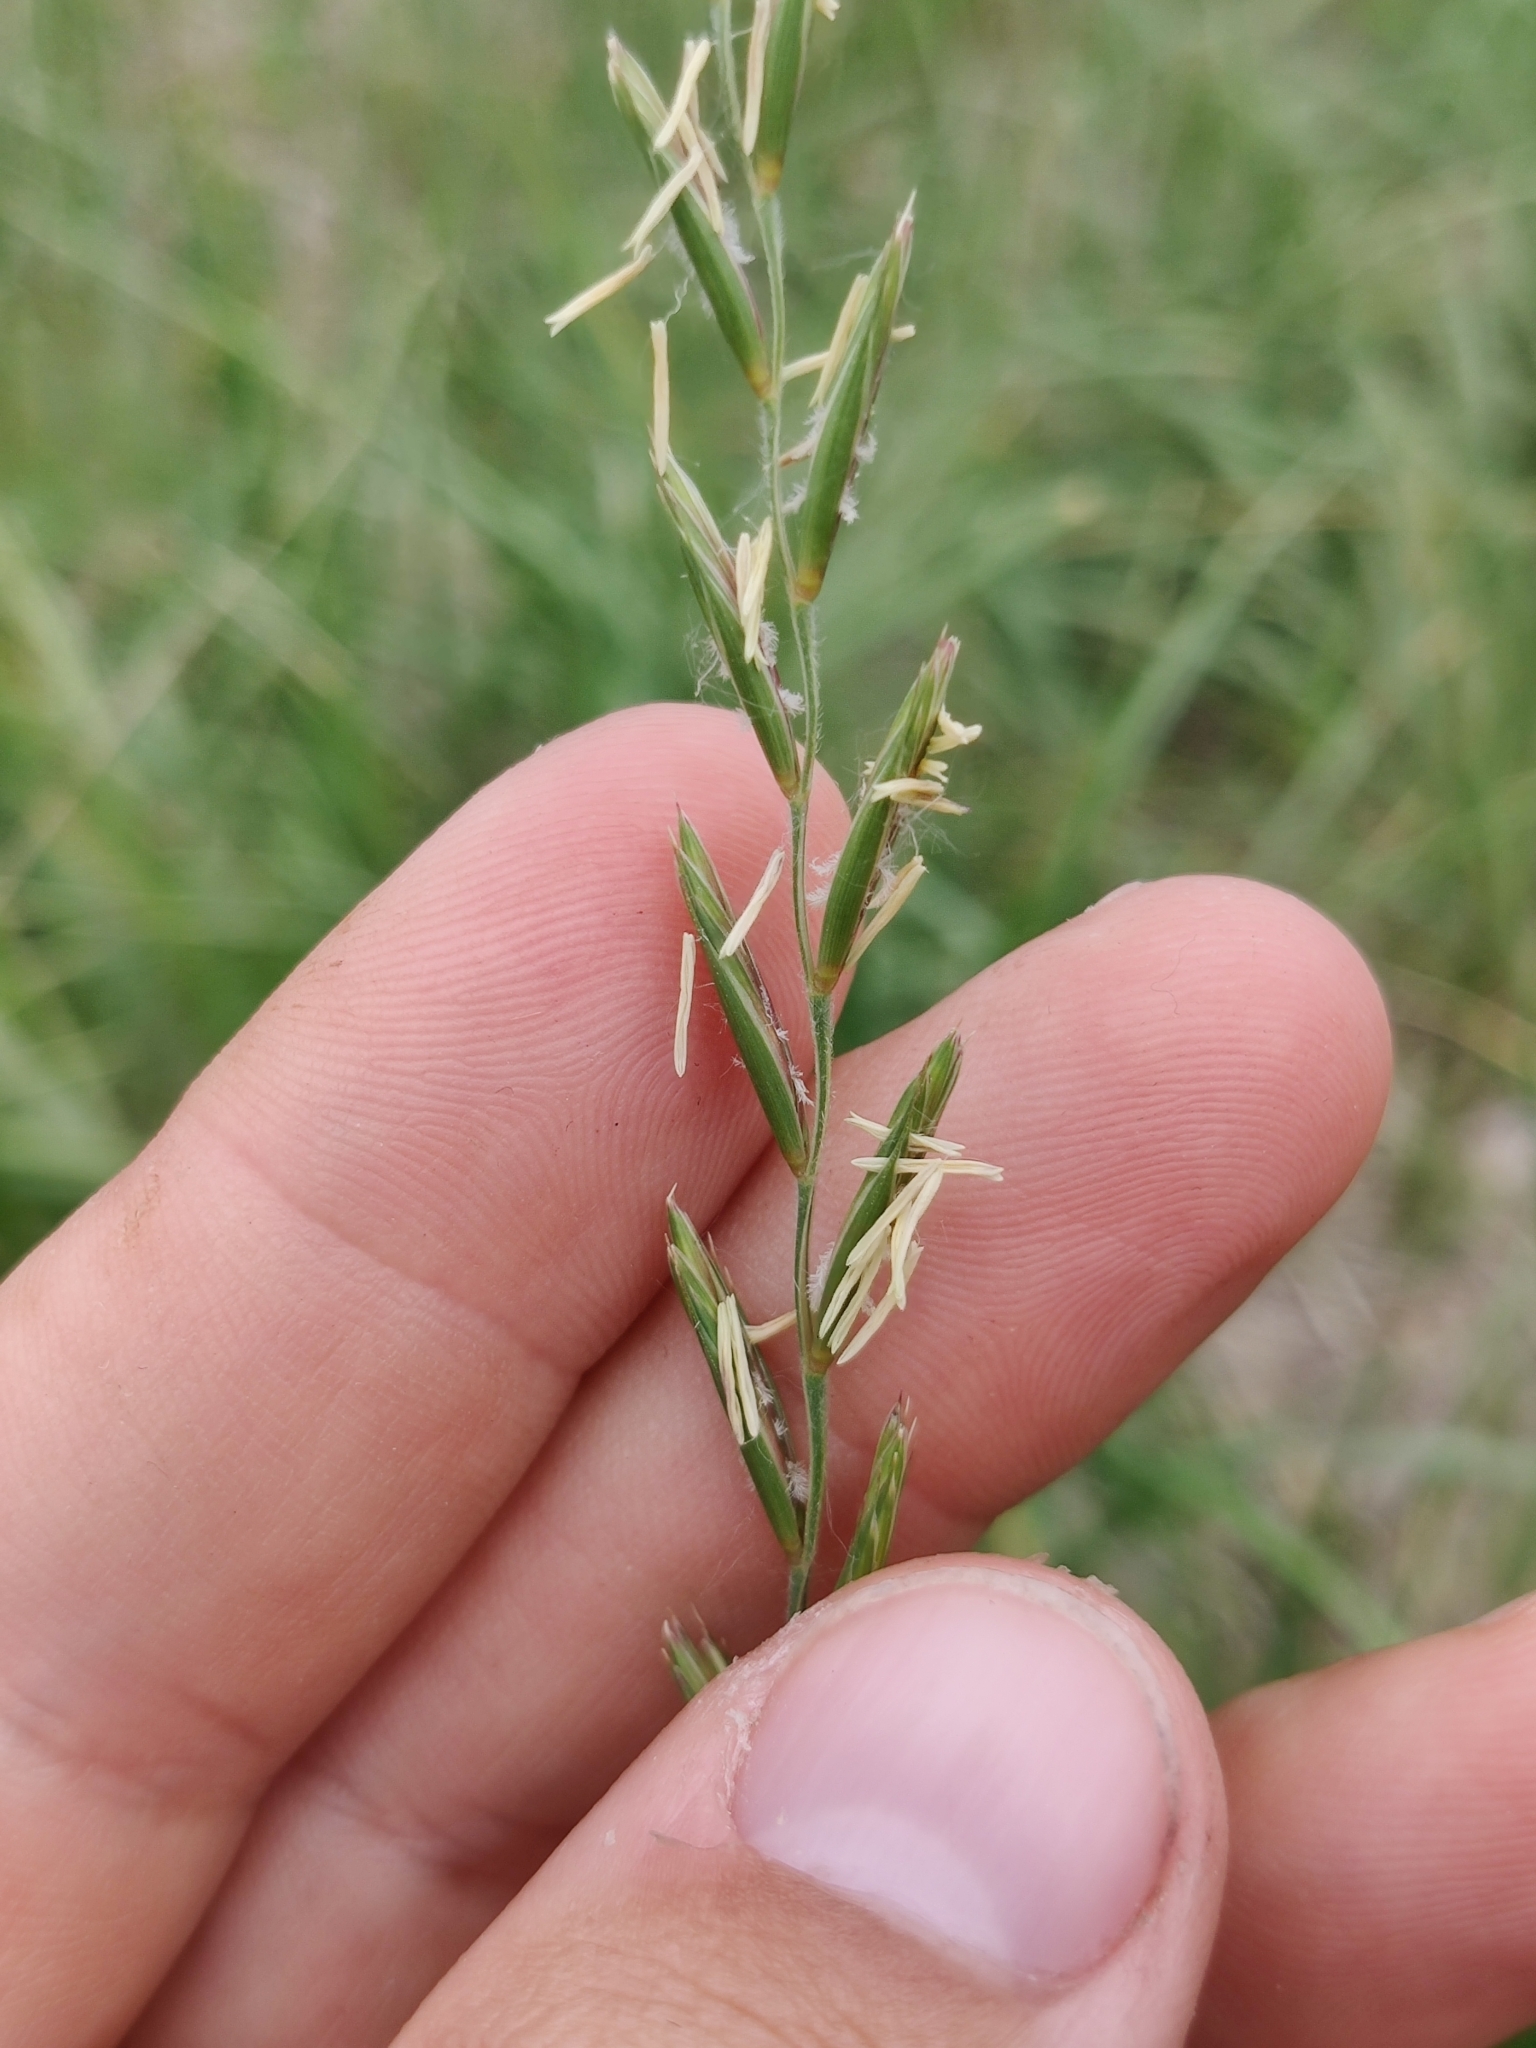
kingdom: Plantae
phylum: Tracheophyta
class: Liliopsida
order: Poales
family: Poaceae
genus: Elymus
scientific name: Elymus repens
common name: Quackgrass
